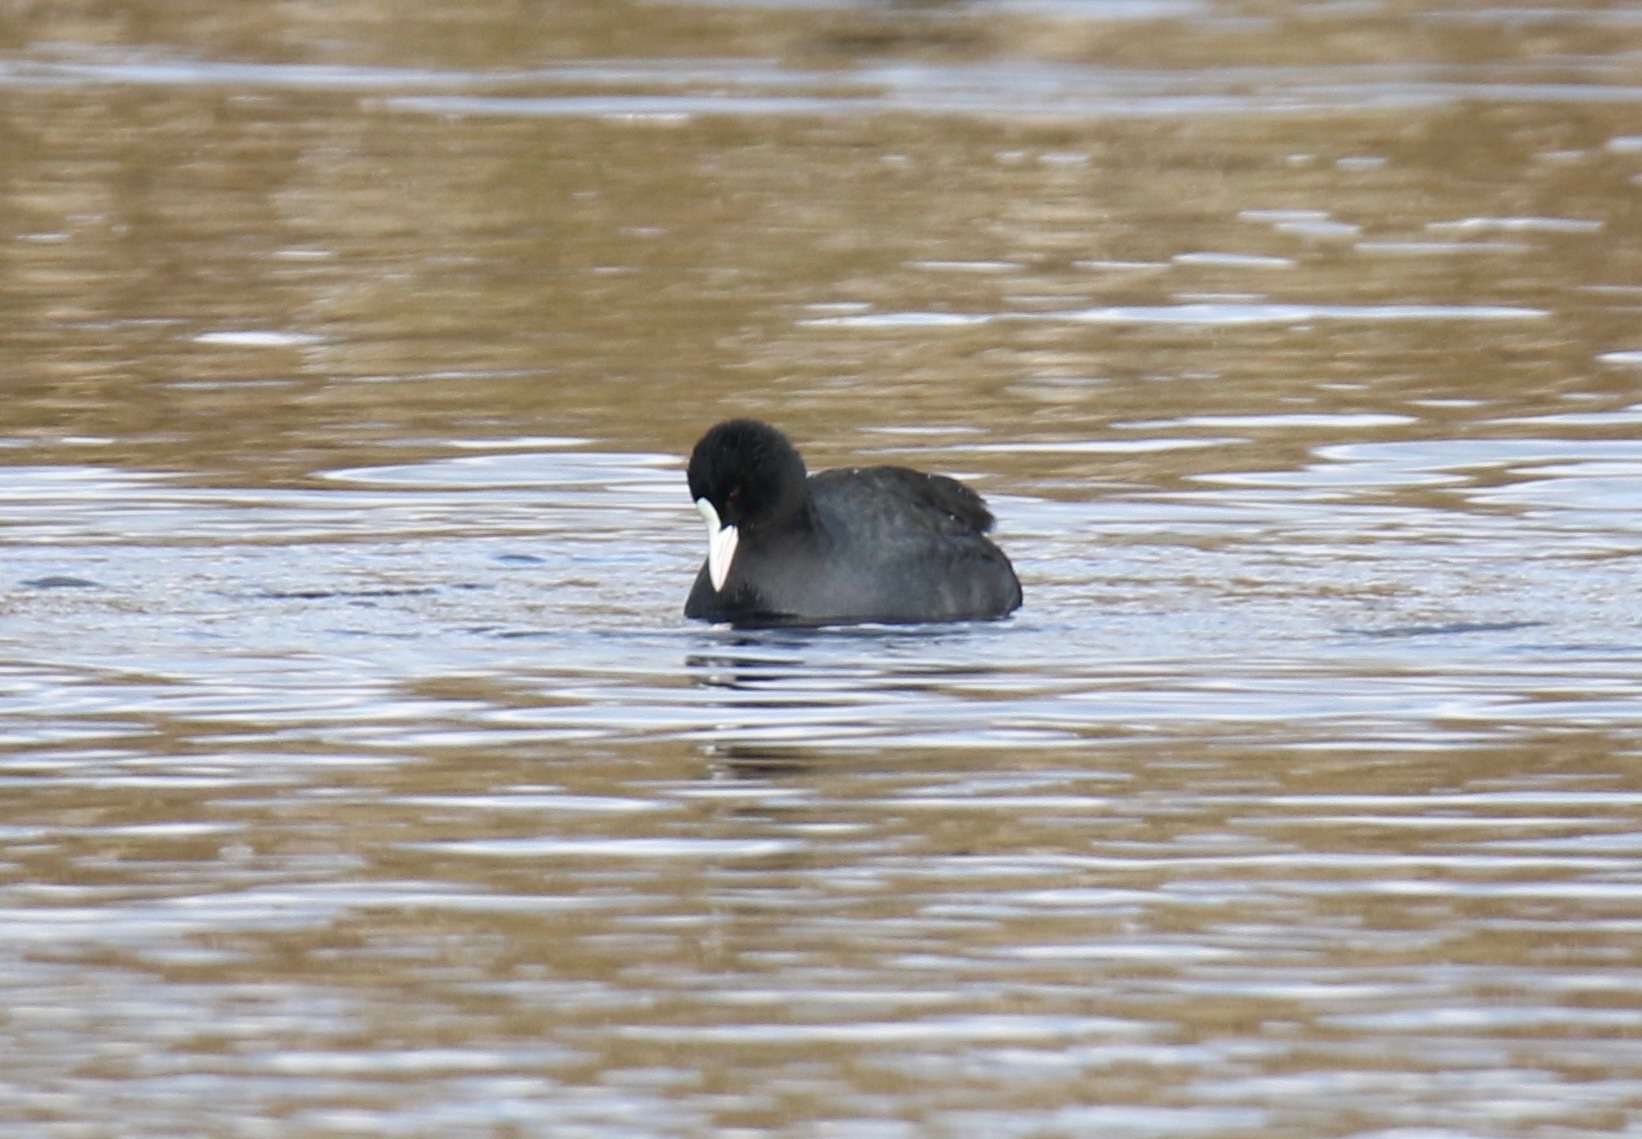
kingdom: Animalia
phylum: Chordata
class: Aves
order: Gruiformes
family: Rallidae
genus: Fulica
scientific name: Fulica atra
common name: Eurasian coot
